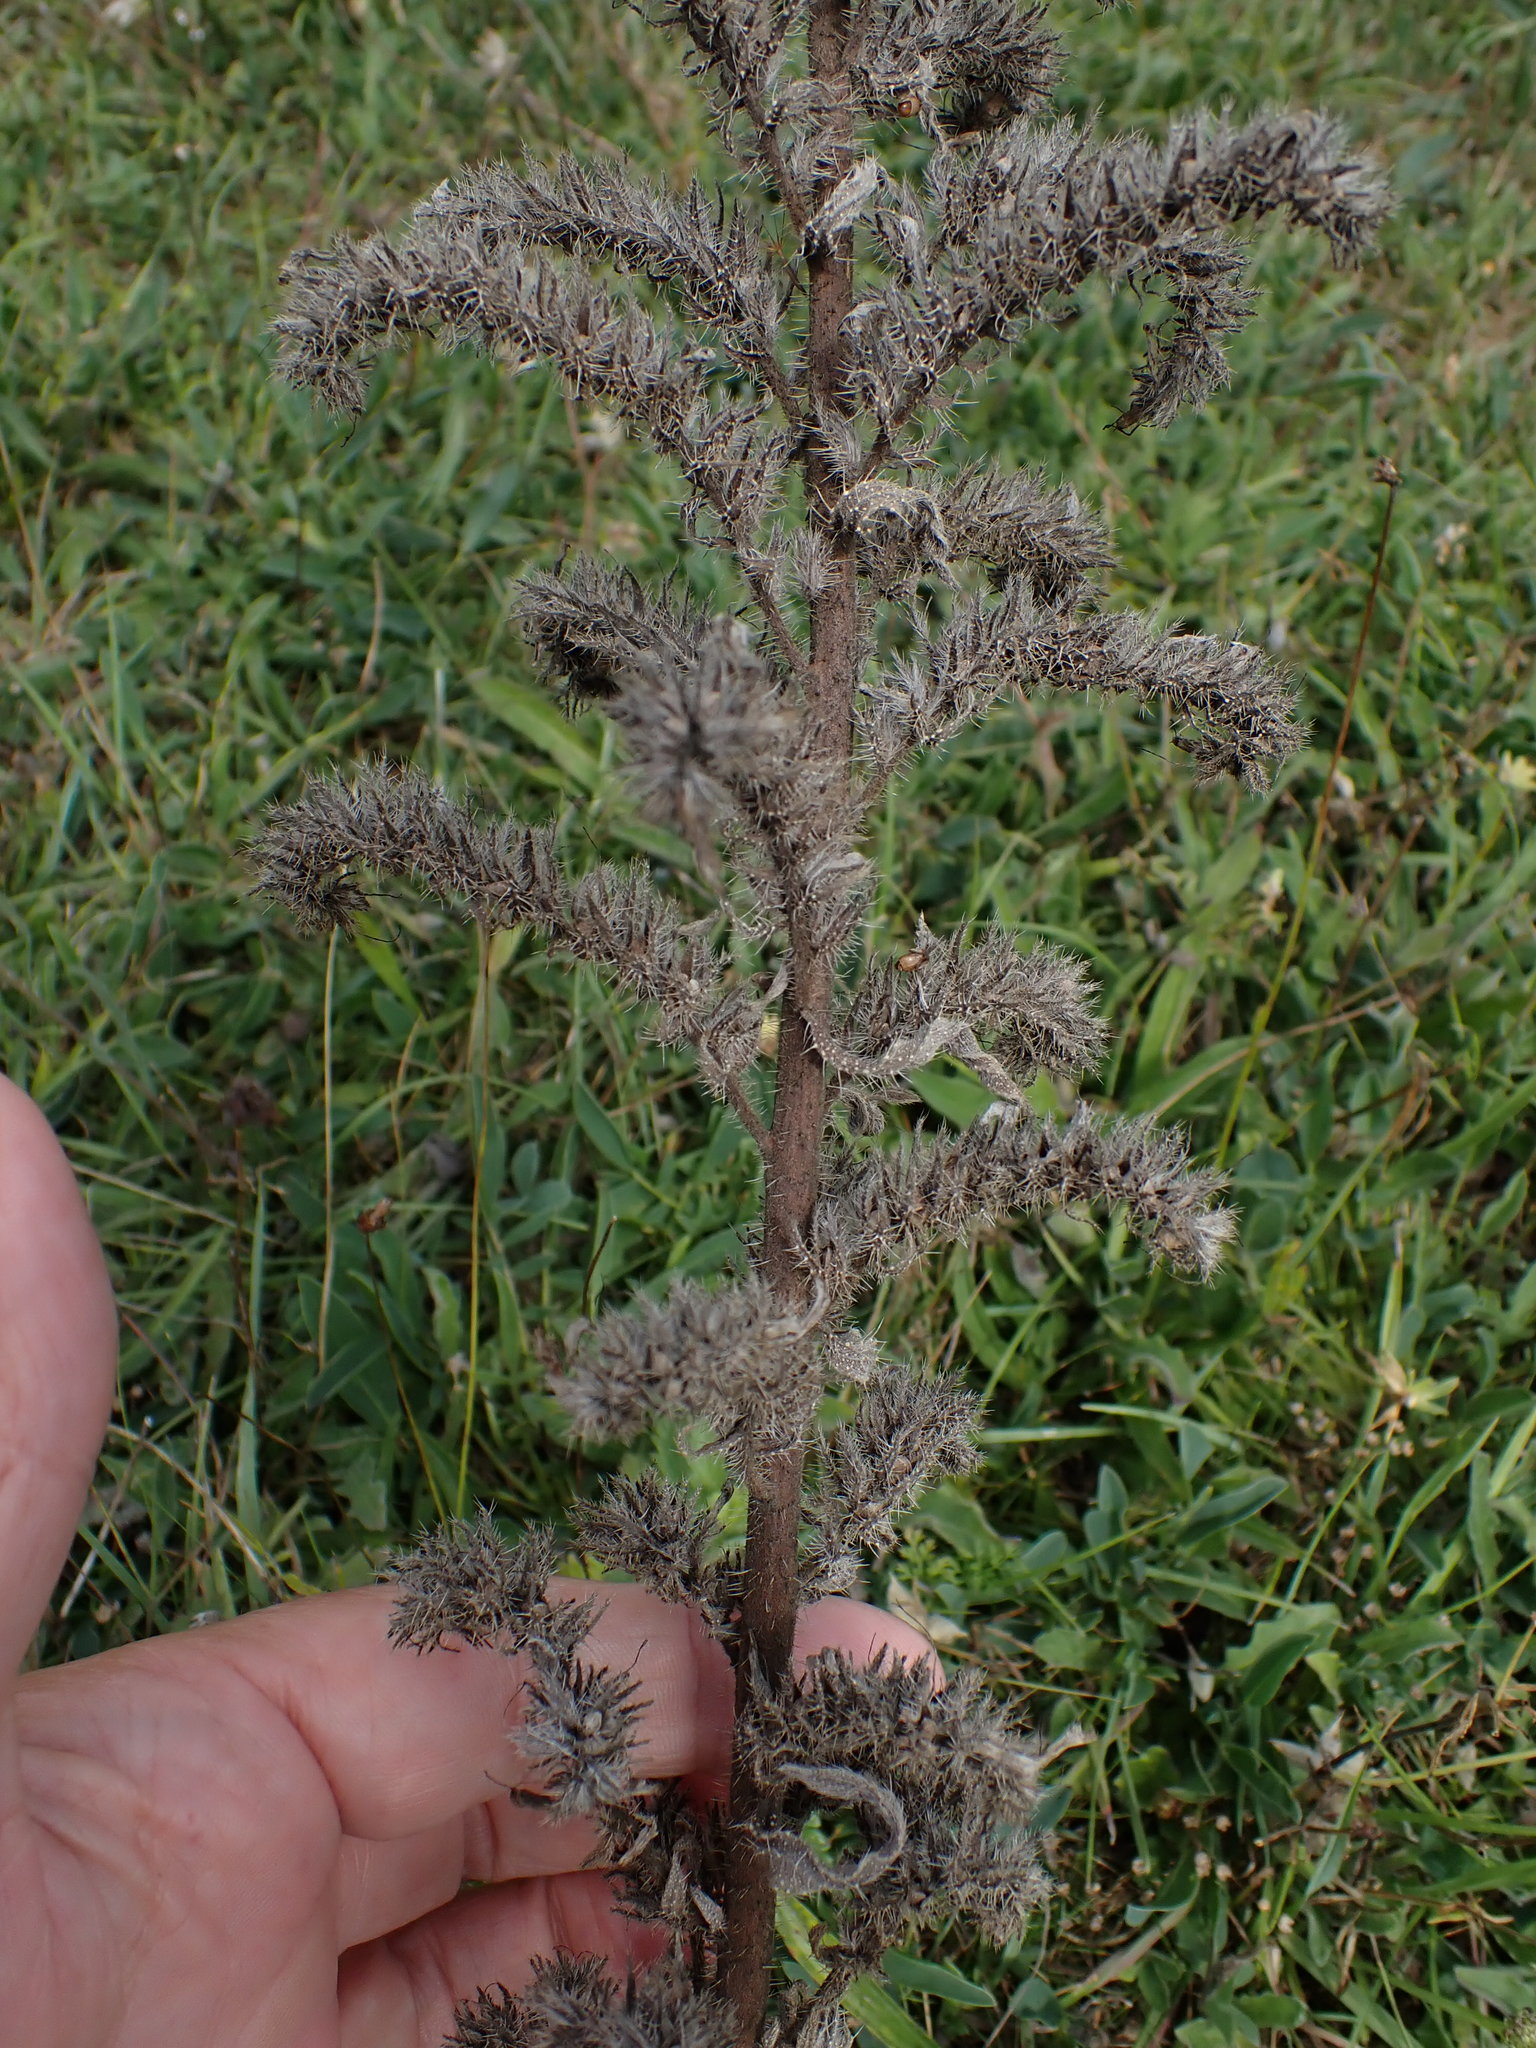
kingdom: Plantae
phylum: Tracheophyta
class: Magnoliopsida
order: Boraginales
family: Boraginaceae
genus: Echium
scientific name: Echium vulgare
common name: Common viper's bugloss
